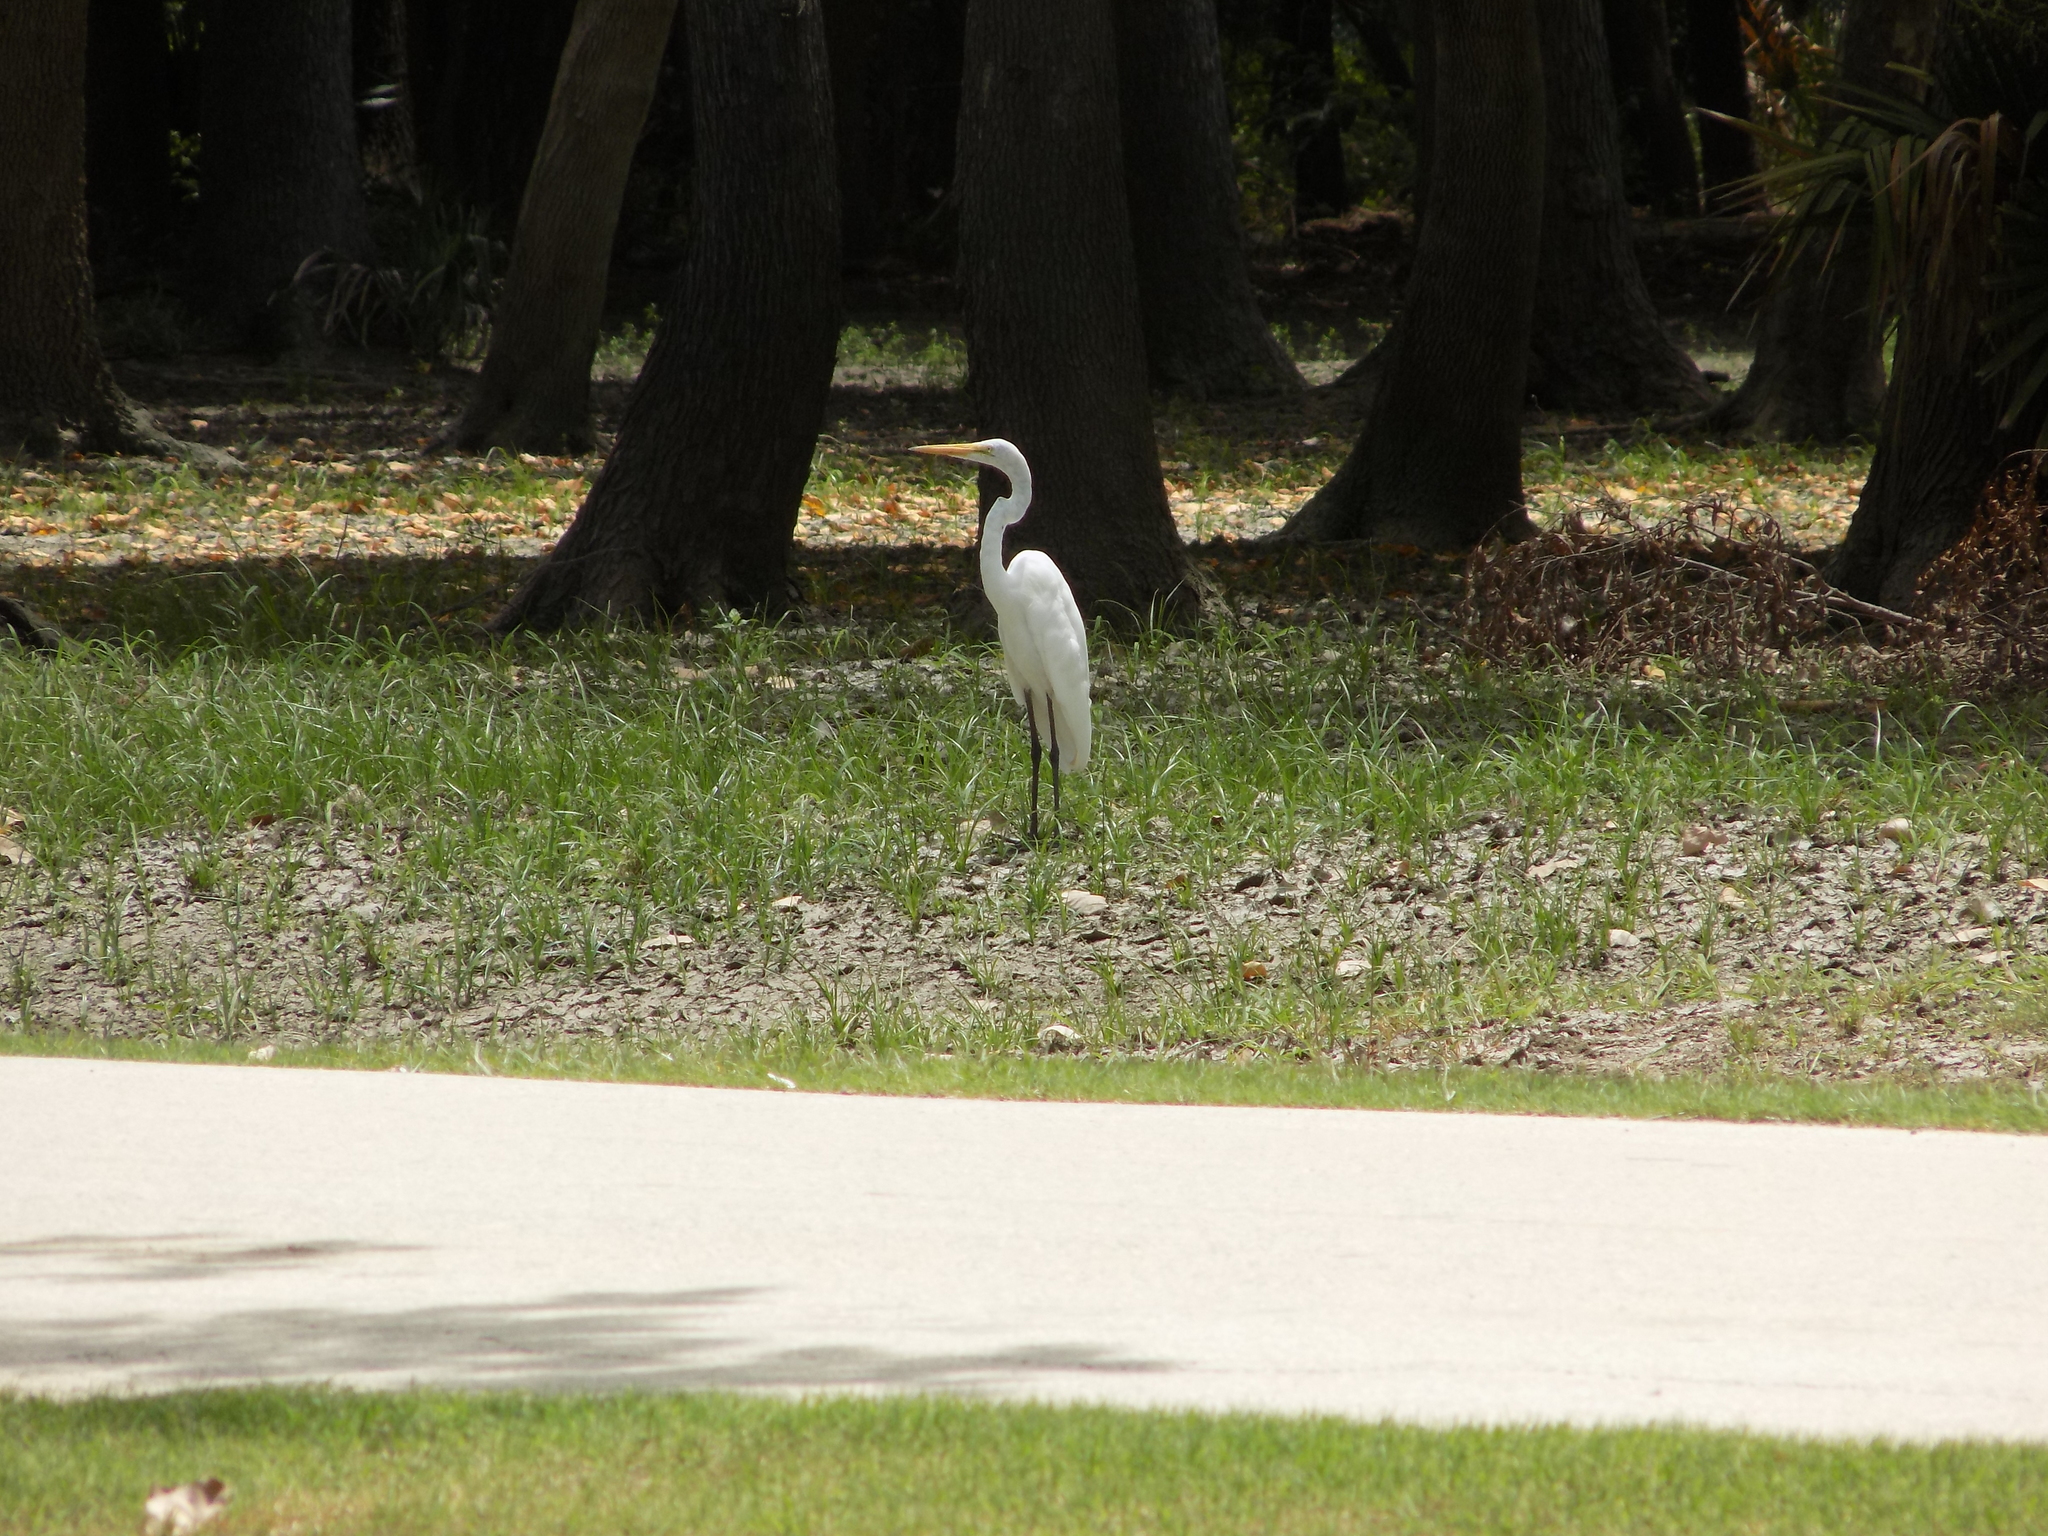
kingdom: Animalia
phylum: Chordata
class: Aves
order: Pelecaniformes
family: Ardeidae
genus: Ardea
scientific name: Ardea alba
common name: Great egret
